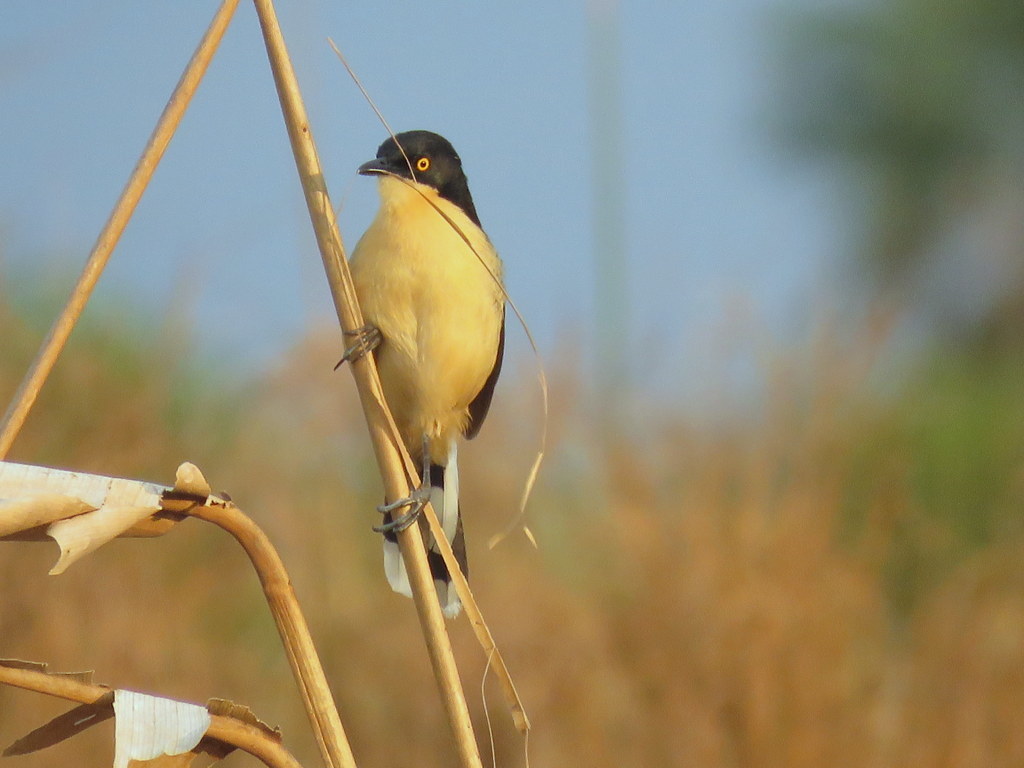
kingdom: Animalia
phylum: Chordata
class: Aves
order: Passeriformes
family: Donacobiidae
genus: Donacobius
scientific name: Donacobius atricapilla
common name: Black-capped donacobius
